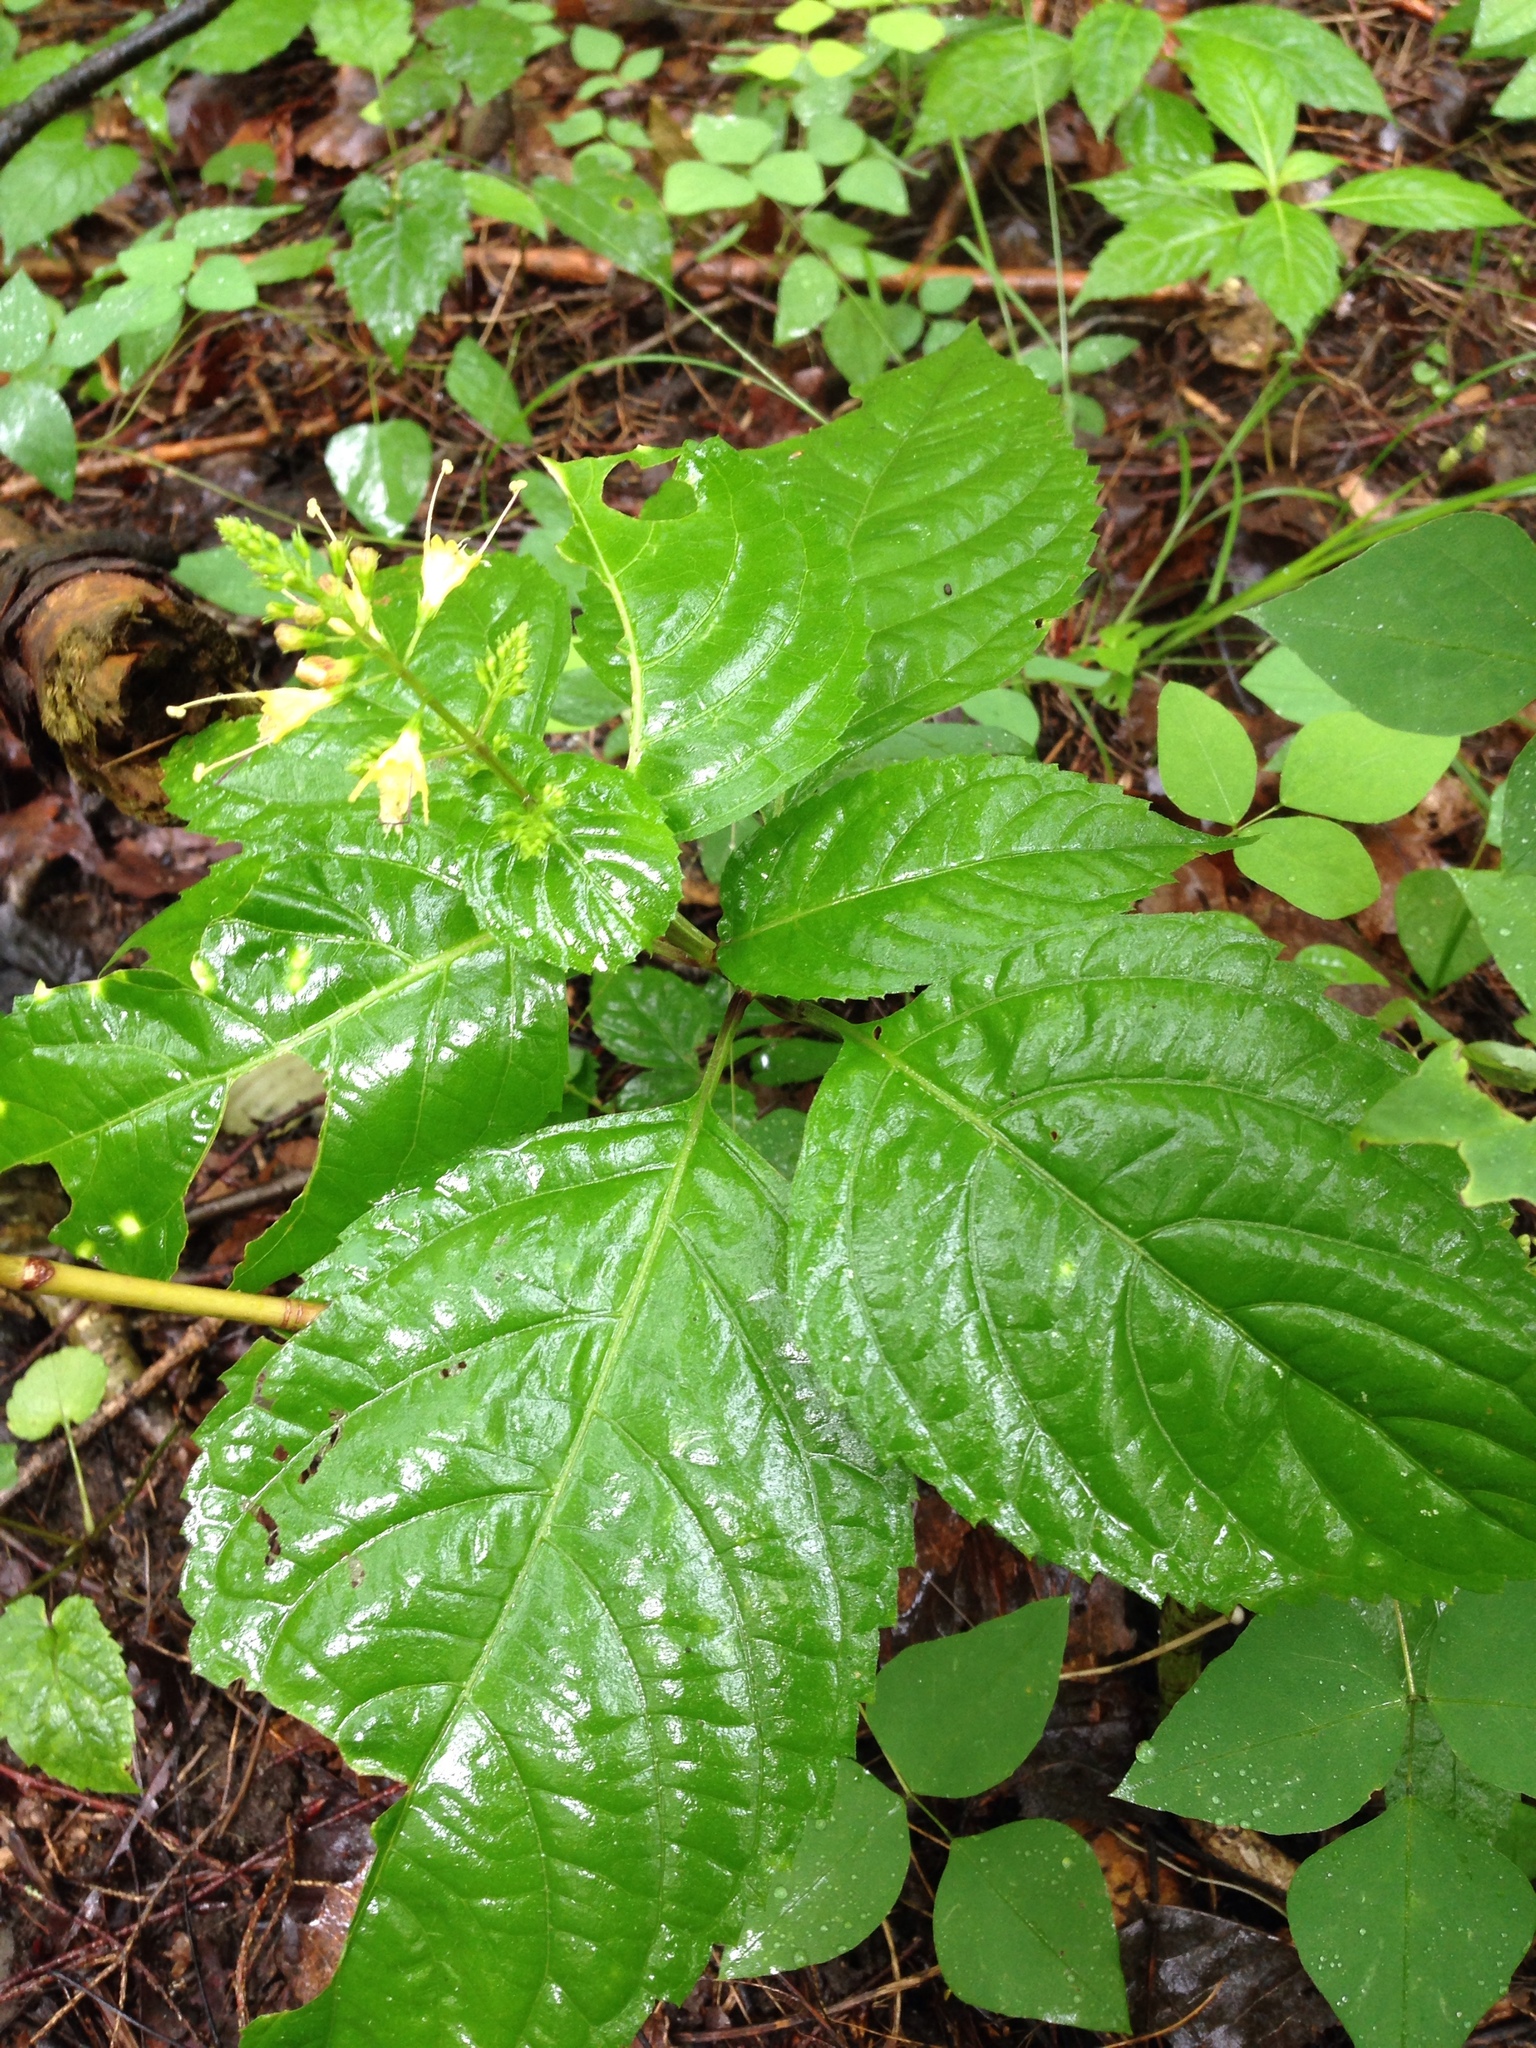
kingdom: Plantae
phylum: Tracheophyta
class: Magnoliopsida
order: Lamiales
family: Lamiaceae
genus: Collinsonia
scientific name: Collinsonia canadensis
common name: Northern horsebalm
